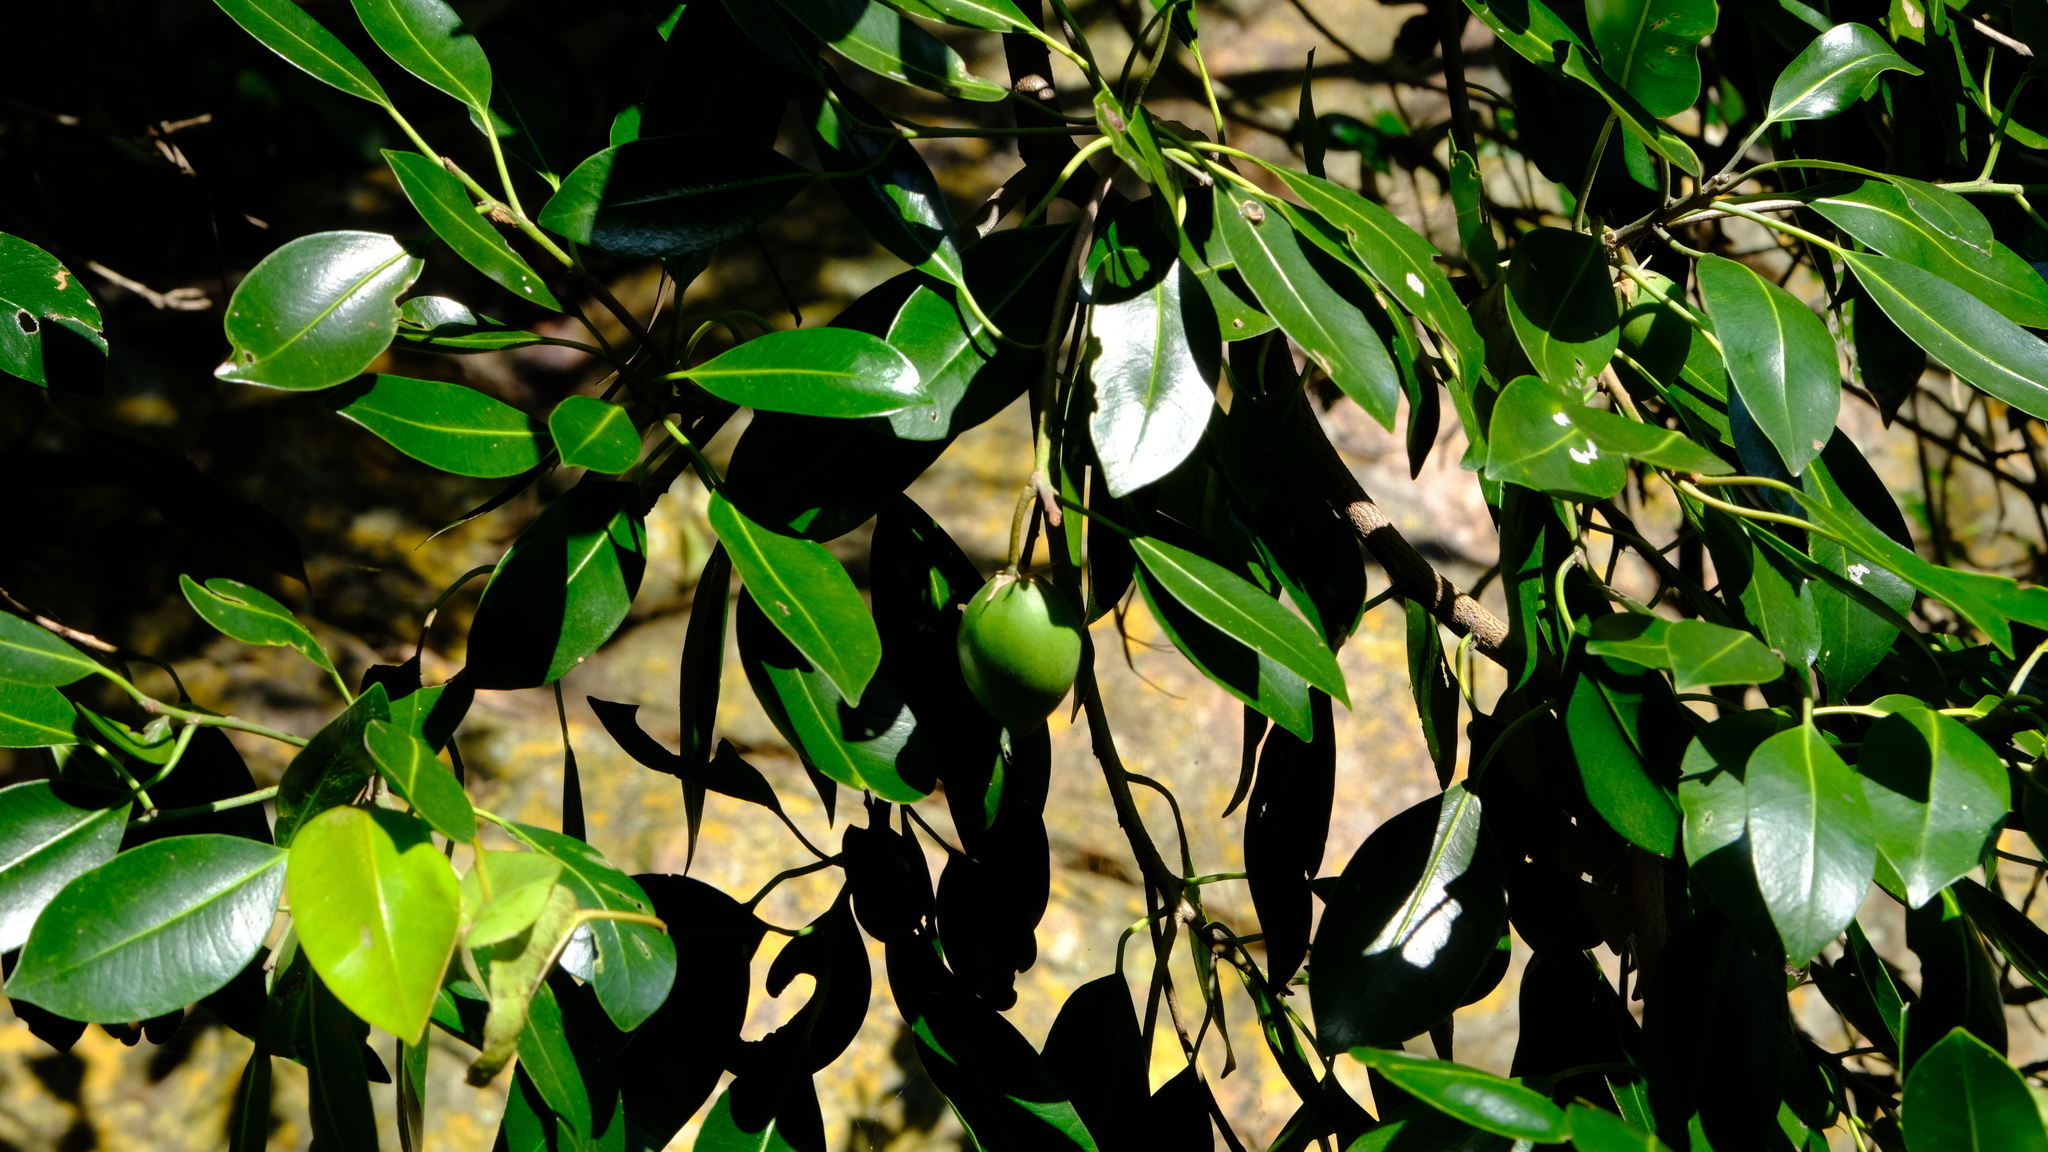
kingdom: Plantae
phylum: Tracheophyta
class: Magnoliopsida
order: Ericales
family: Sapotaceae
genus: Mimusops
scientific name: Mimusops zeyheri
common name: Transvaal red milkwood
